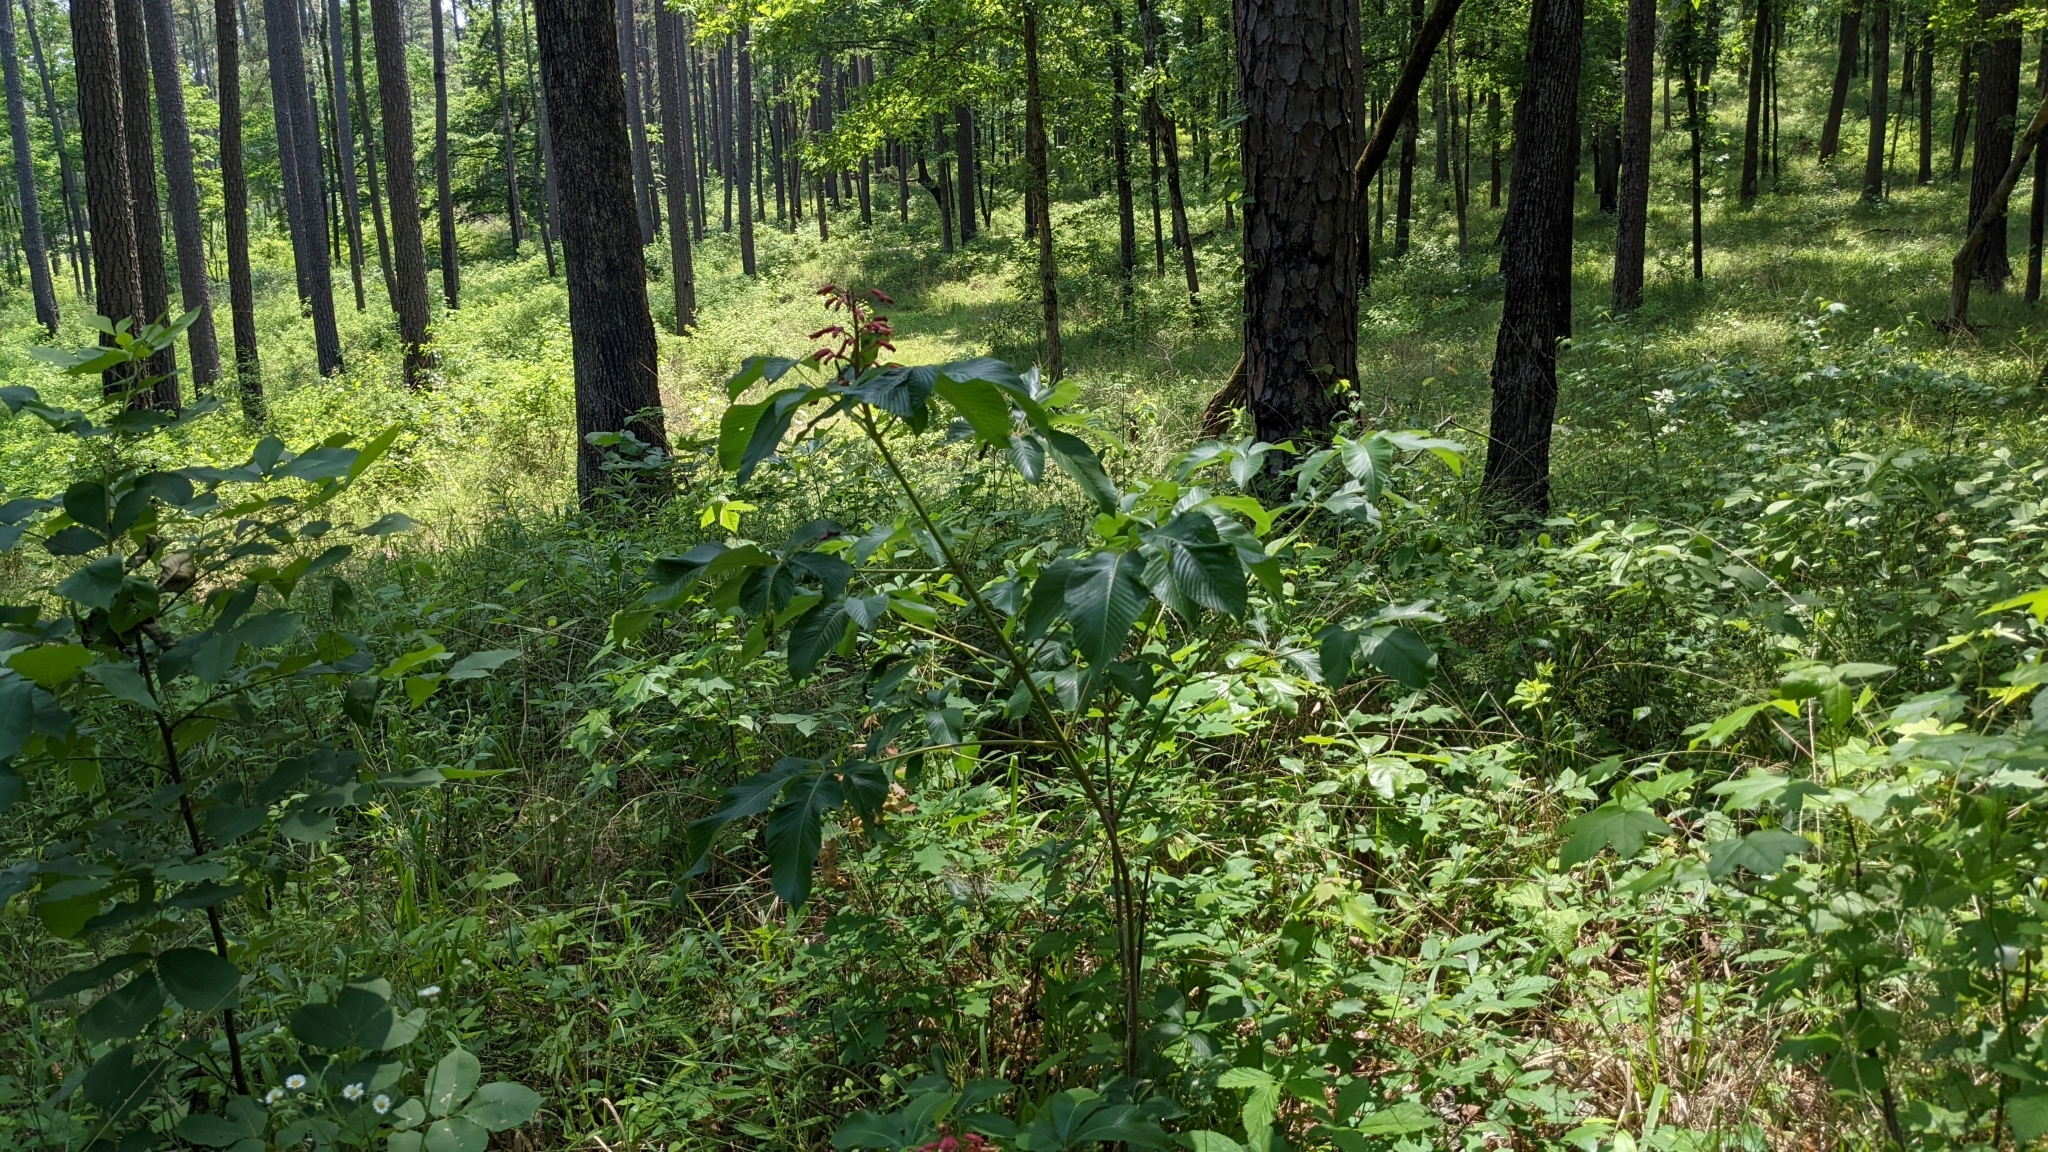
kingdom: Plantae
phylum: Tracheophyta
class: Magnoliopsida
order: Sapindales
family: Sapindaceae
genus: Aesculus
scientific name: Aesculus pavia
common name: Red buckeye
